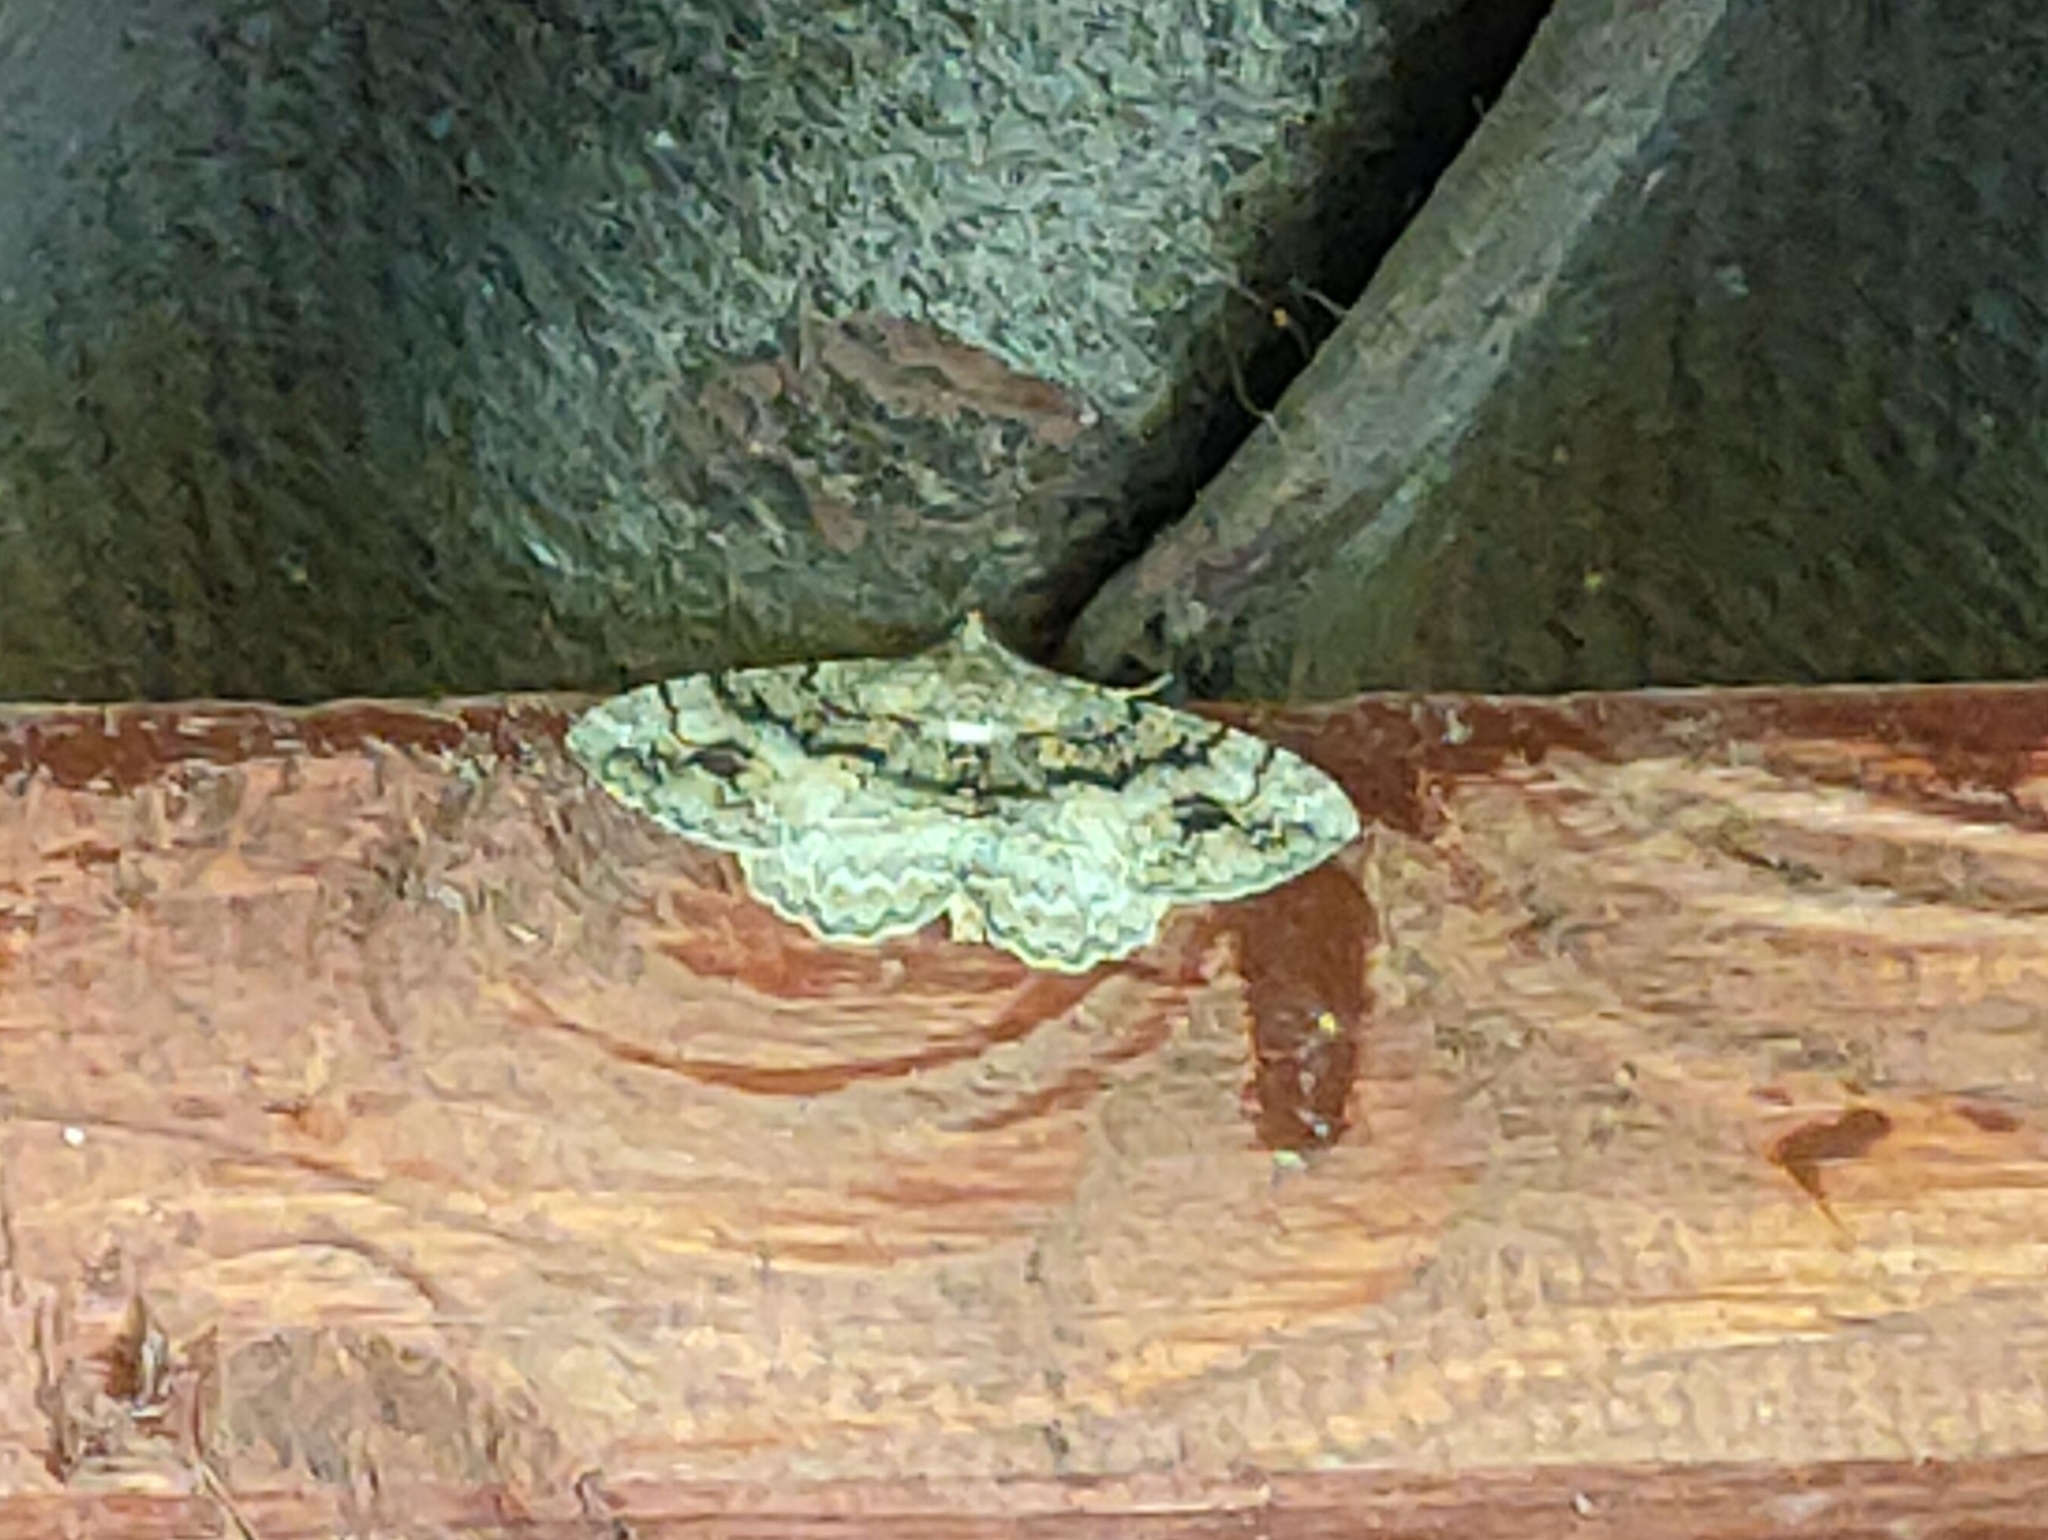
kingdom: Animalia
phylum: Arthropoda
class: Insecta
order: Lepidoptera
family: Geometridae
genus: Alcis
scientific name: Alcis deversata
